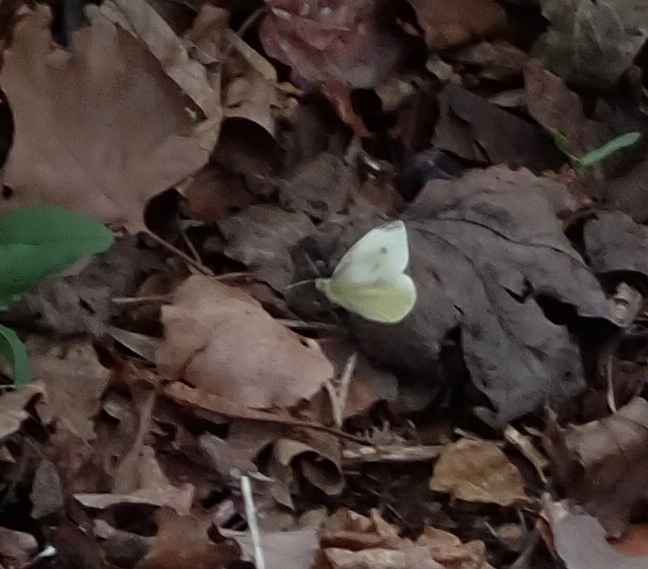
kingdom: Animalia
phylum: Arthropoda
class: Insecta
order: Lepidoptera
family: Pieridae
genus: Pieris
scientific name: Pieris rapae
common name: Small white
